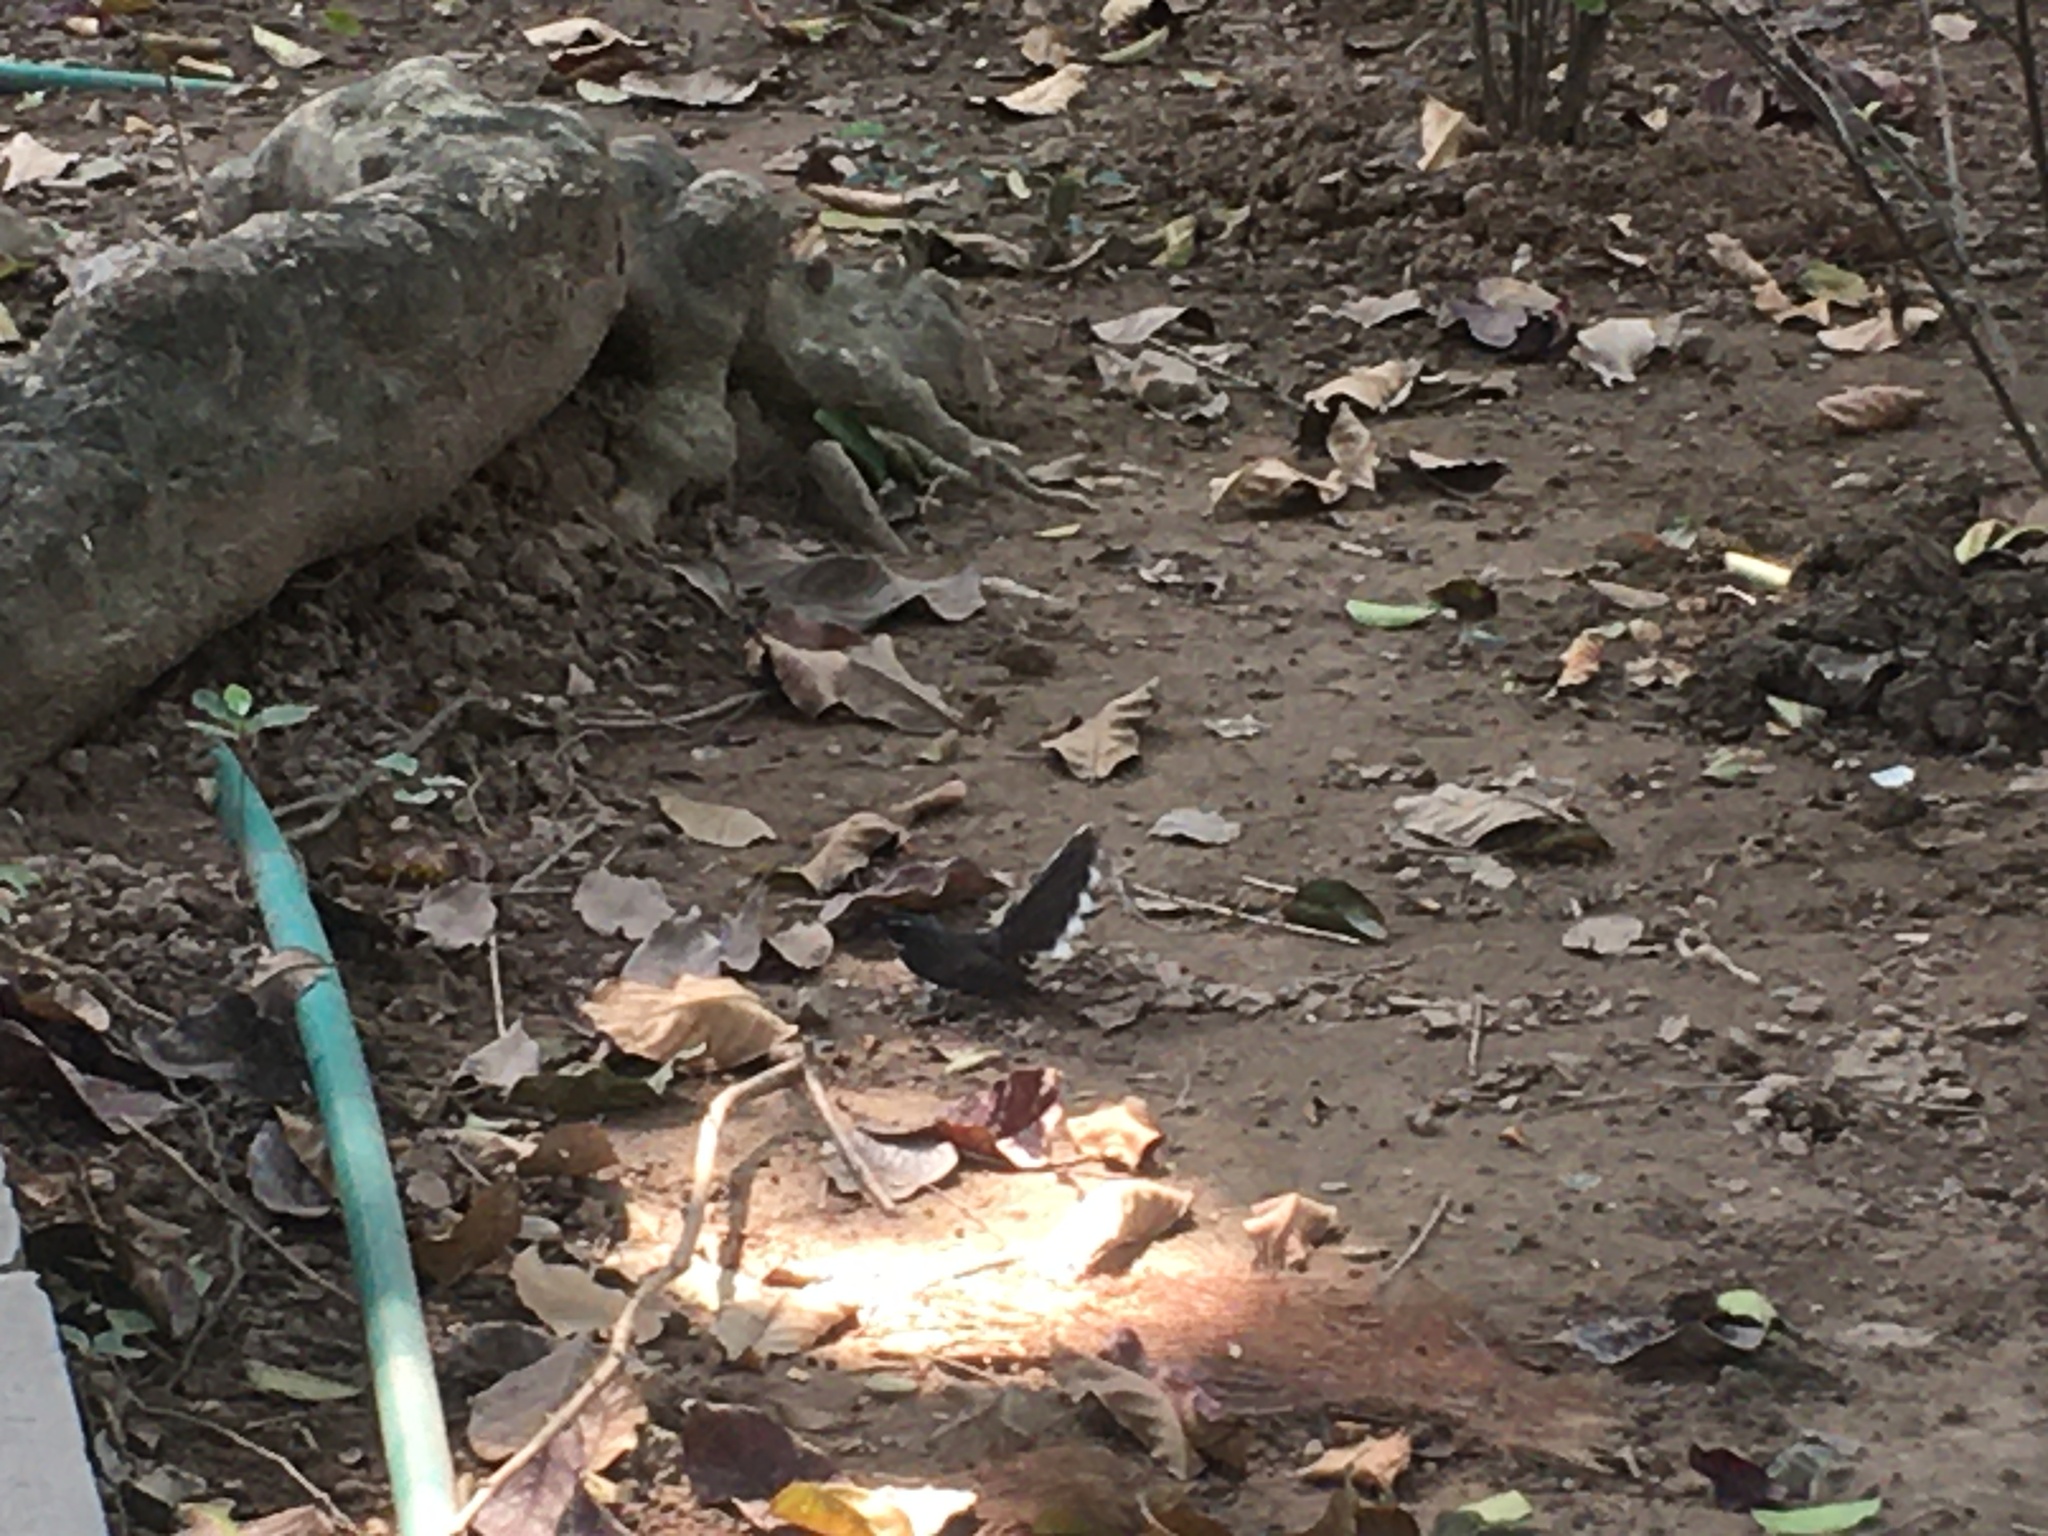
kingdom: Animalia
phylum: Chordata
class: Aves
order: Passeriformes
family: Rhipiduridae
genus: Rhipidura
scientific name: Rhipidura albicollis
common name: White-throated fantail
